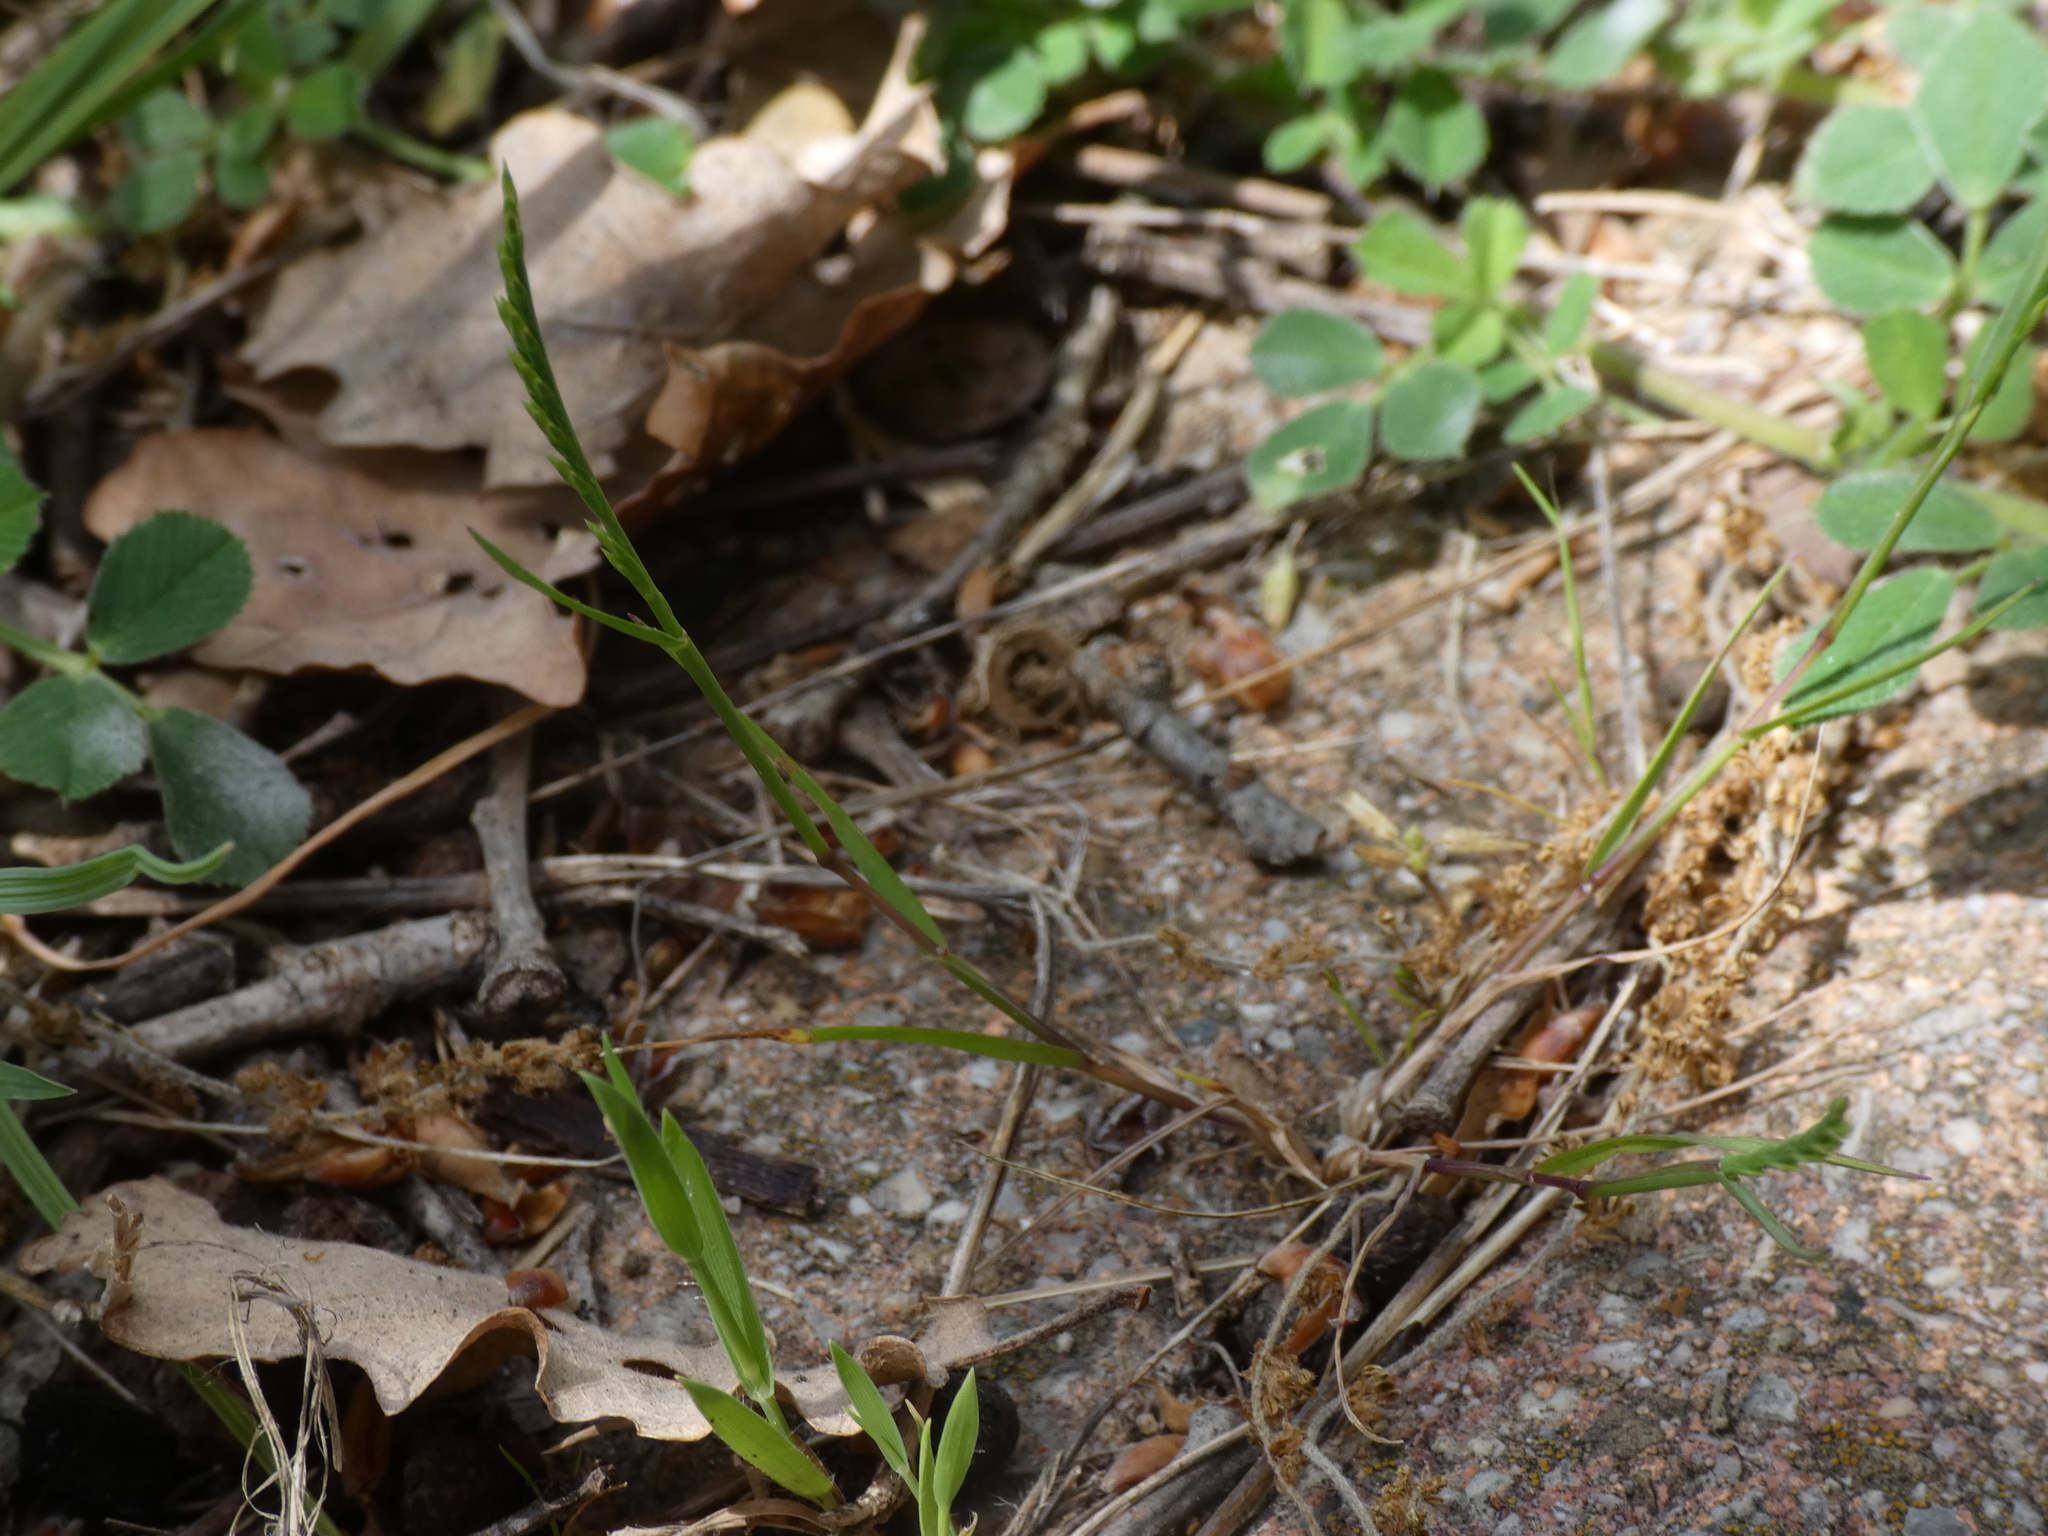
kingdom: Plantae
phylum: Tracheophyta
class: Liliopsida
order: Poales
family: Poaceae
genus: Catapodium
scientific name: Catapodium rigidum
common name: Fern-grass
